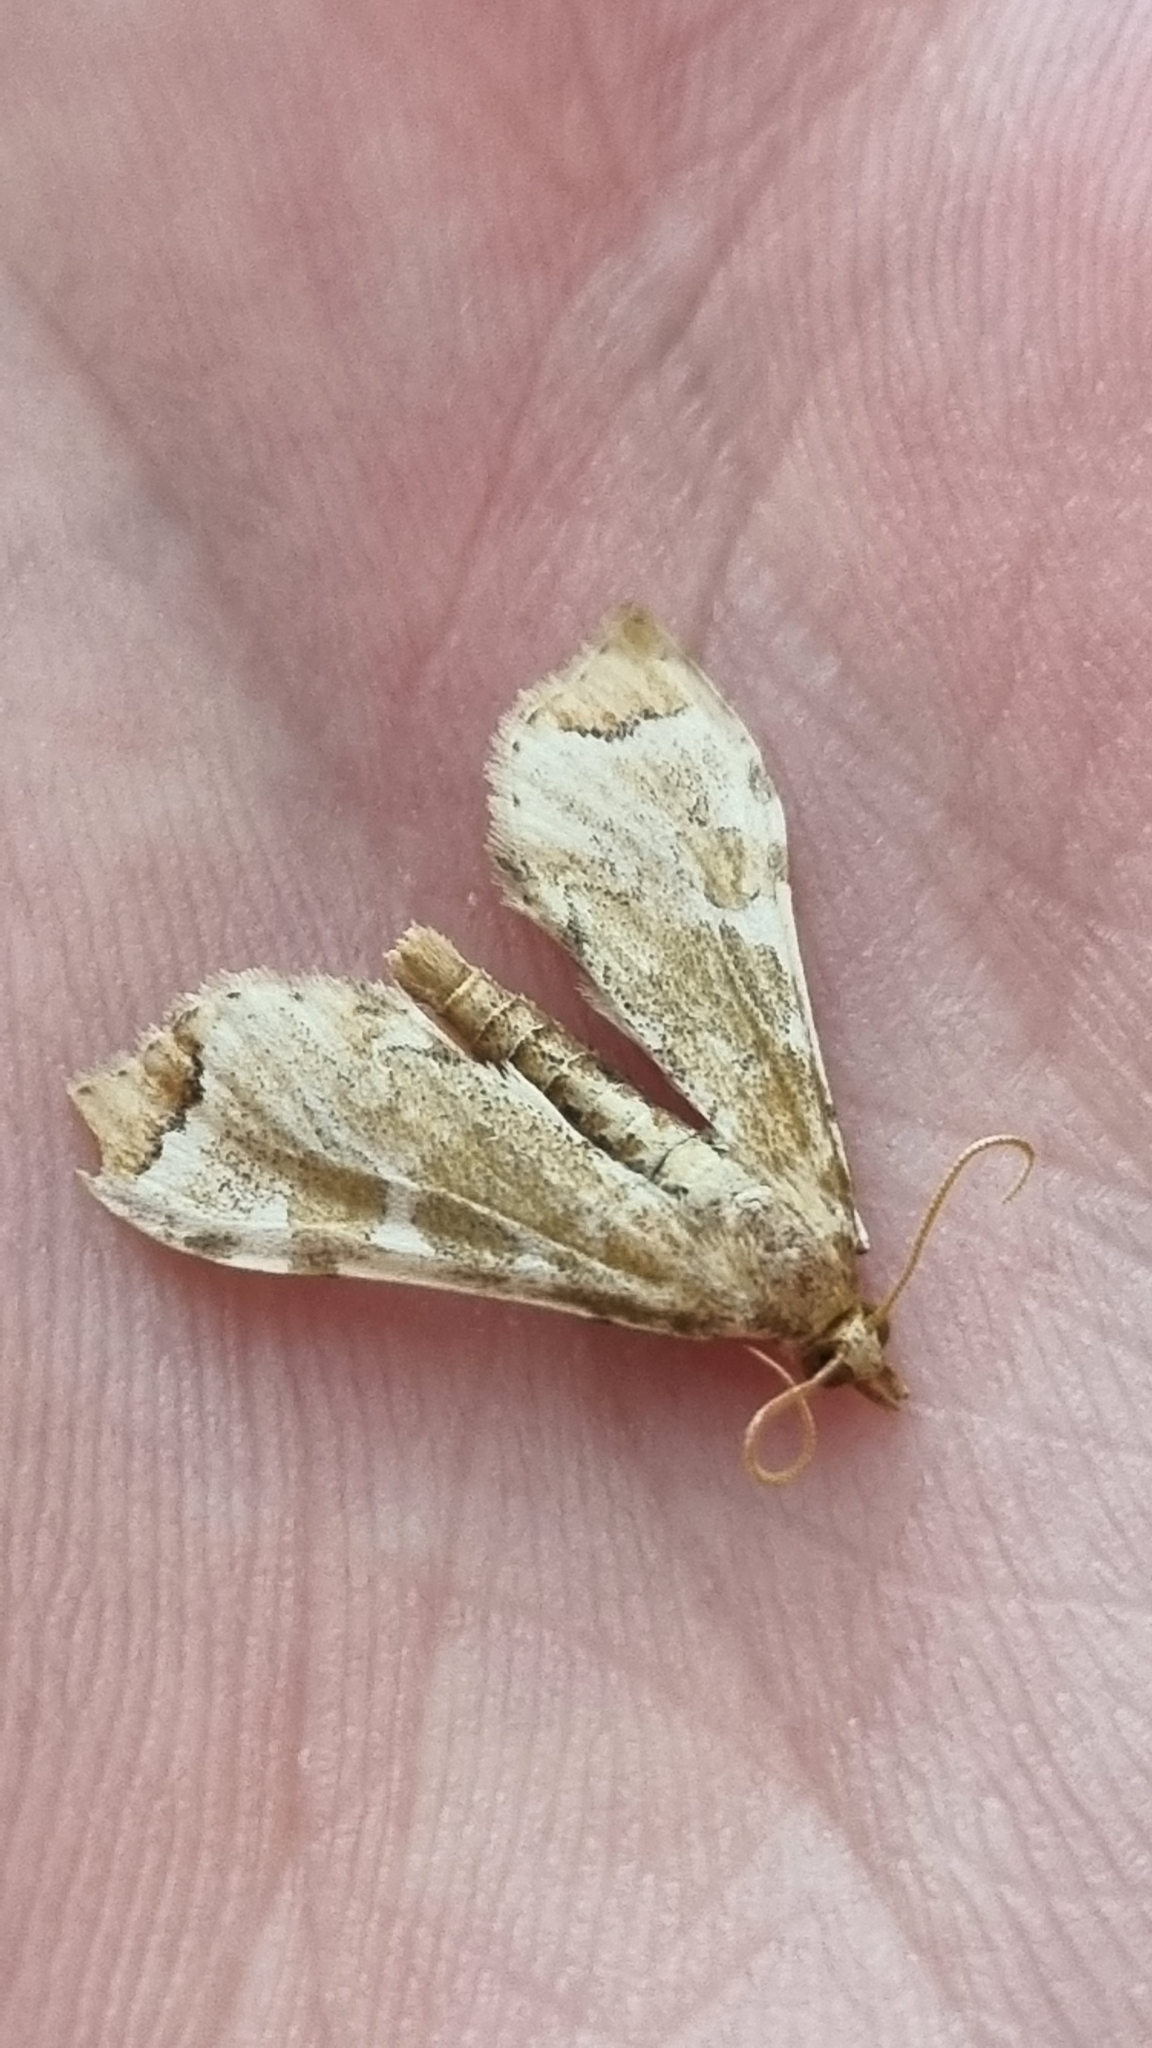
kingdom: Animalia
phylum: Arthropoda
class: Insecta
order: Lepidoptera
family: Crambidae
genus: Sceliodes
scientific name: Sceliodes cordalis
